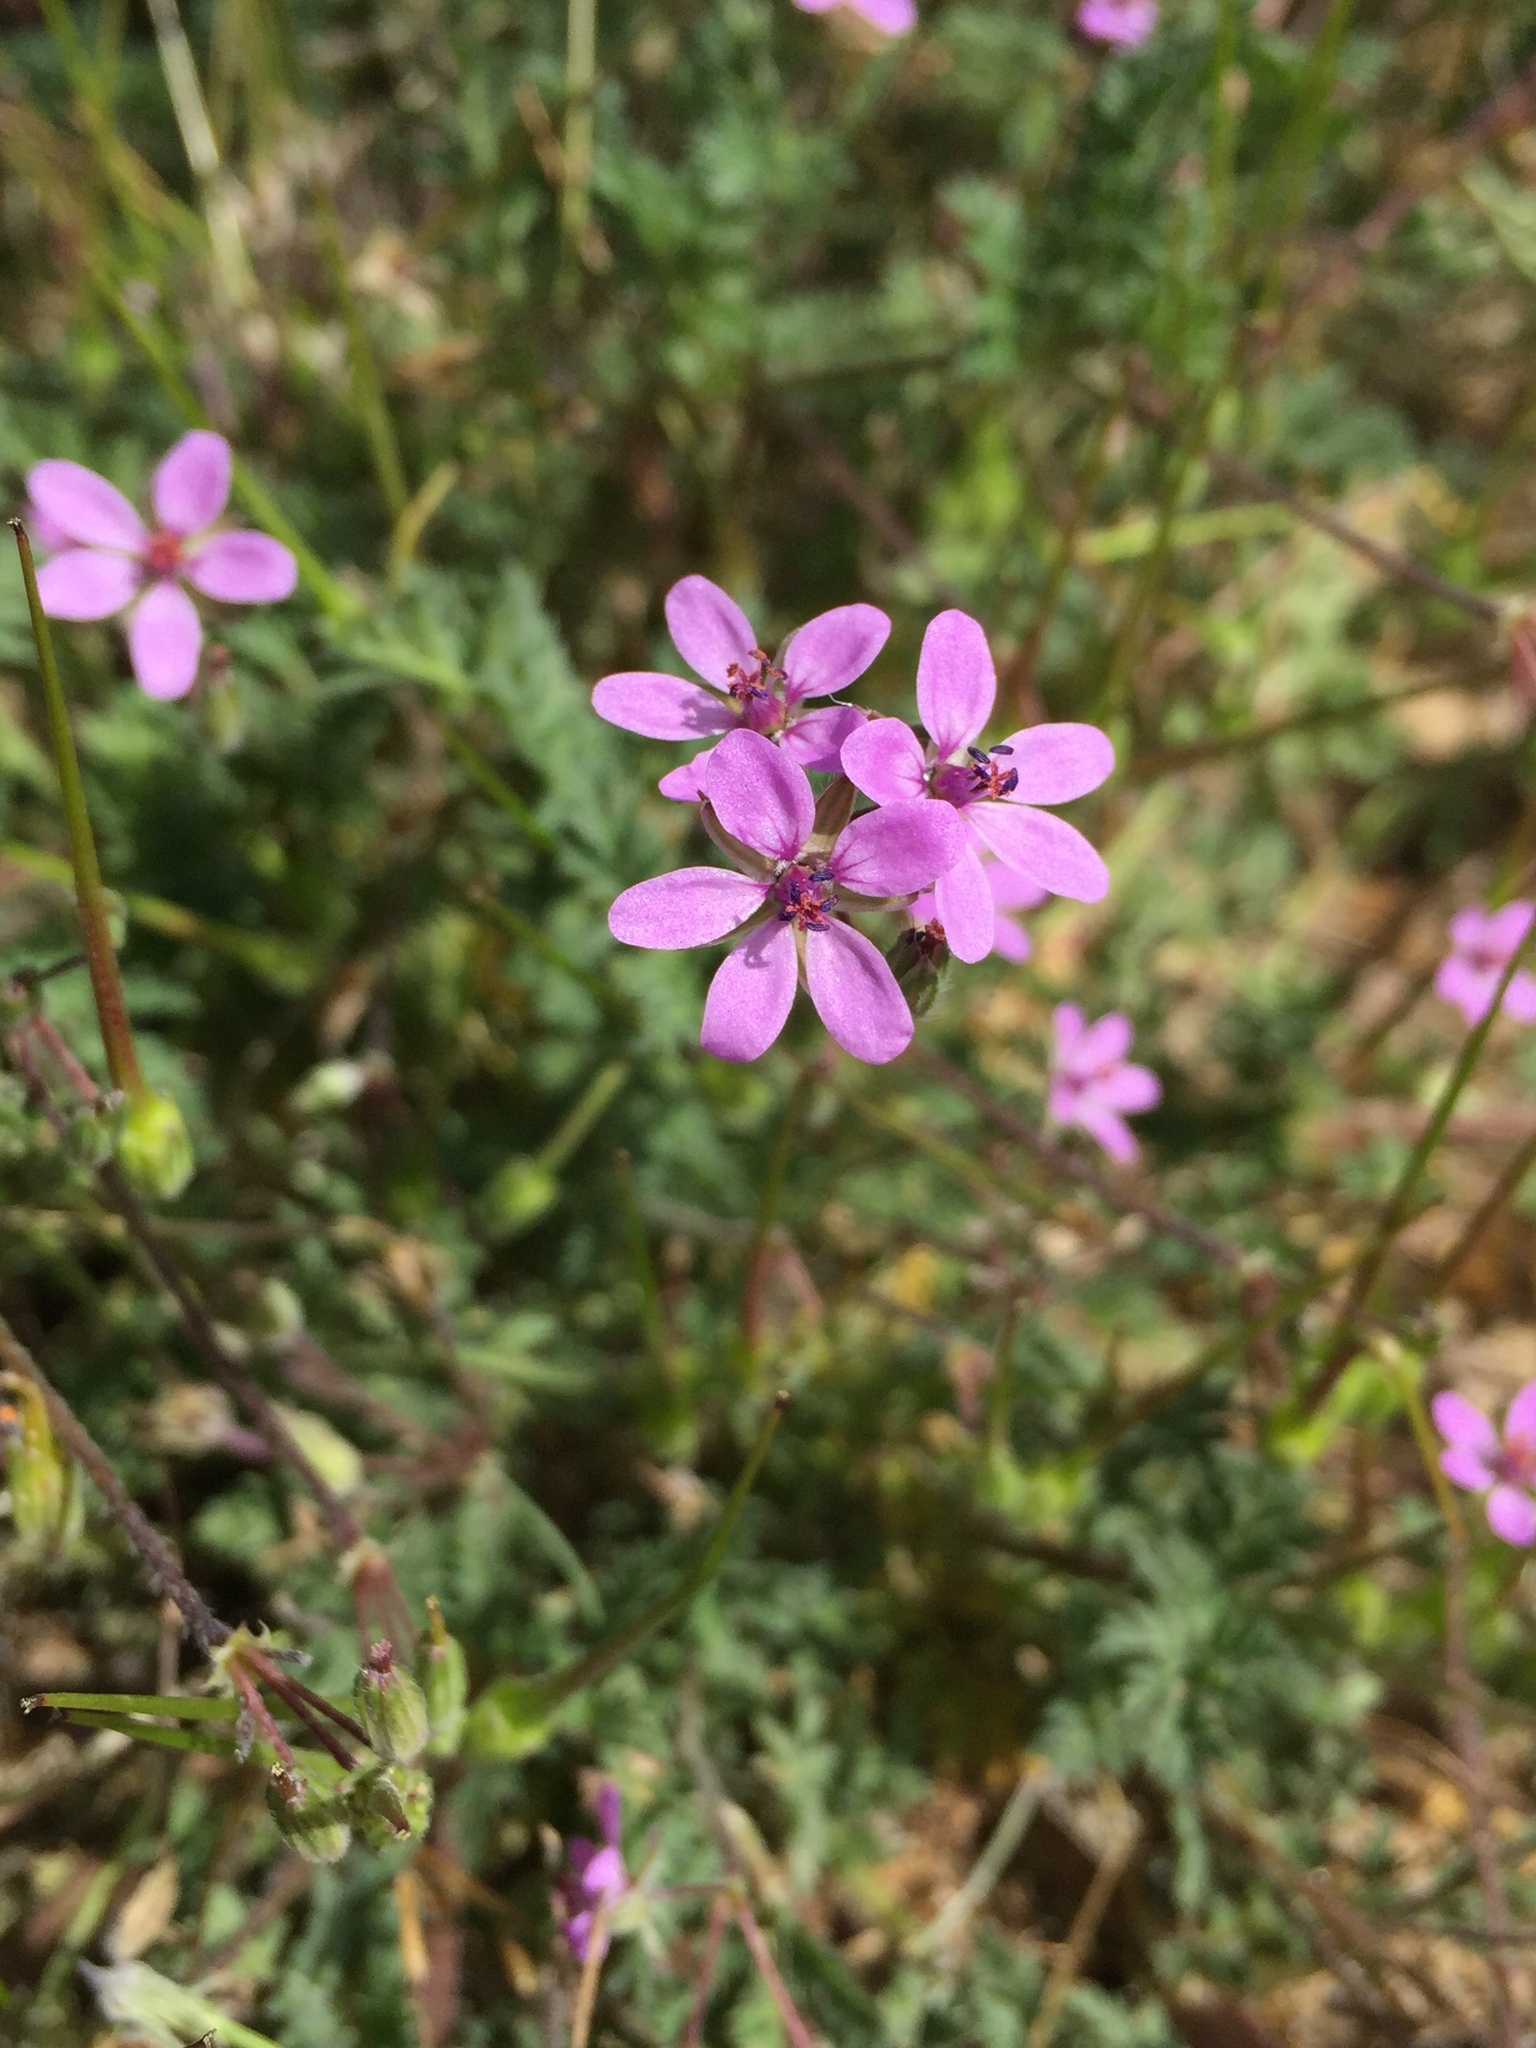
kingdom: Plantae
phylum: Tracheophyta
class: Magnoliopsida
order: Geraniales
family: Geraniaceae
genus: Erodium
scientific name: Erodium cicutarium
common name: Common stork's-bill
